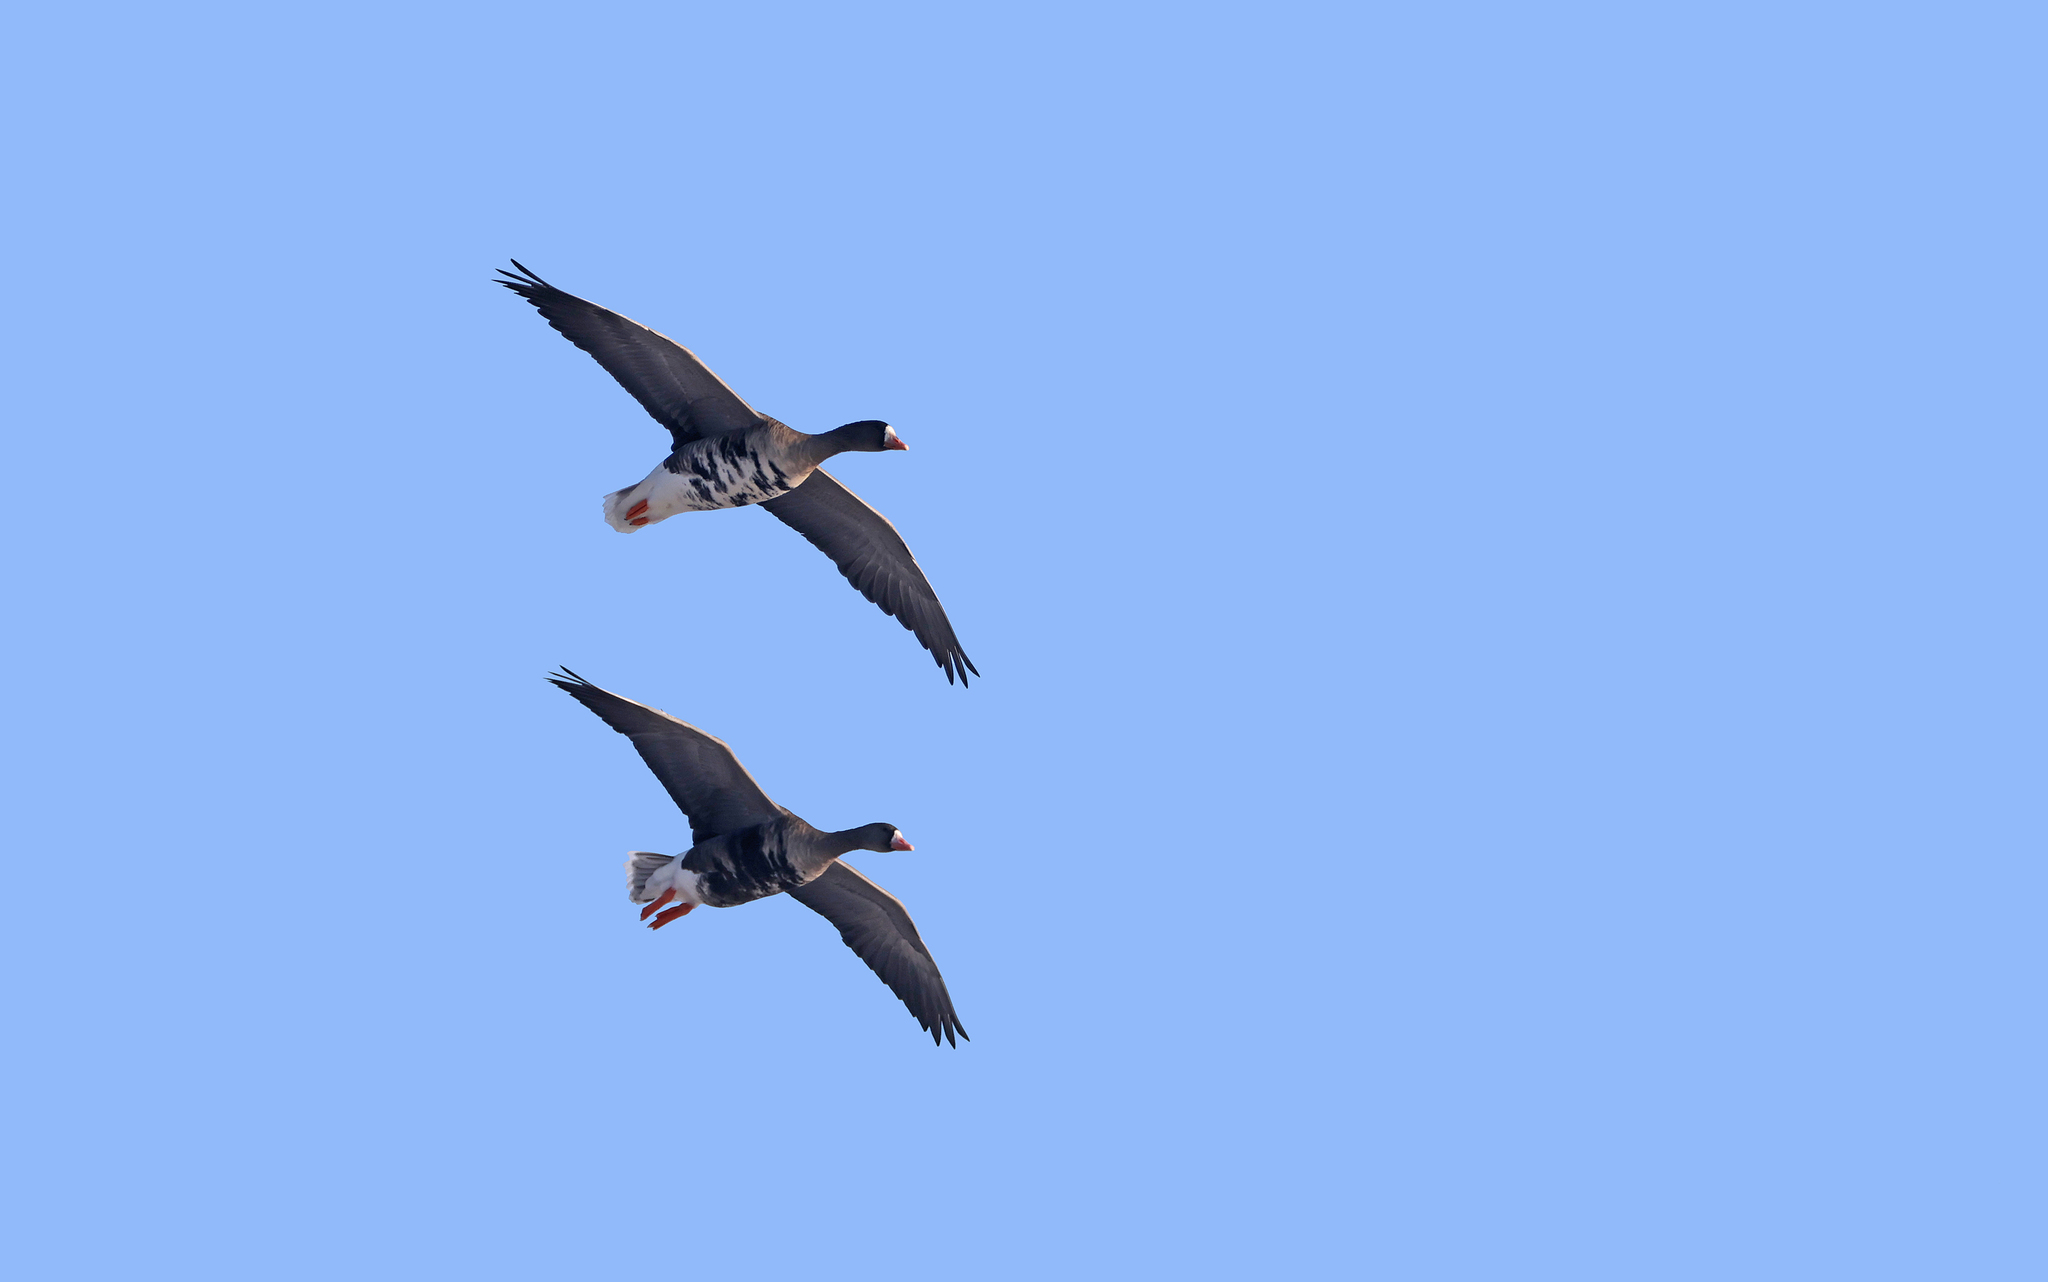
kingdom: Animalia
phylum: Chordata
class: Aves
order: Anseriformes
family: Anatidae
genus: Anser
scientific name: Anser albifrons
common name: Greater white-fronted goose
